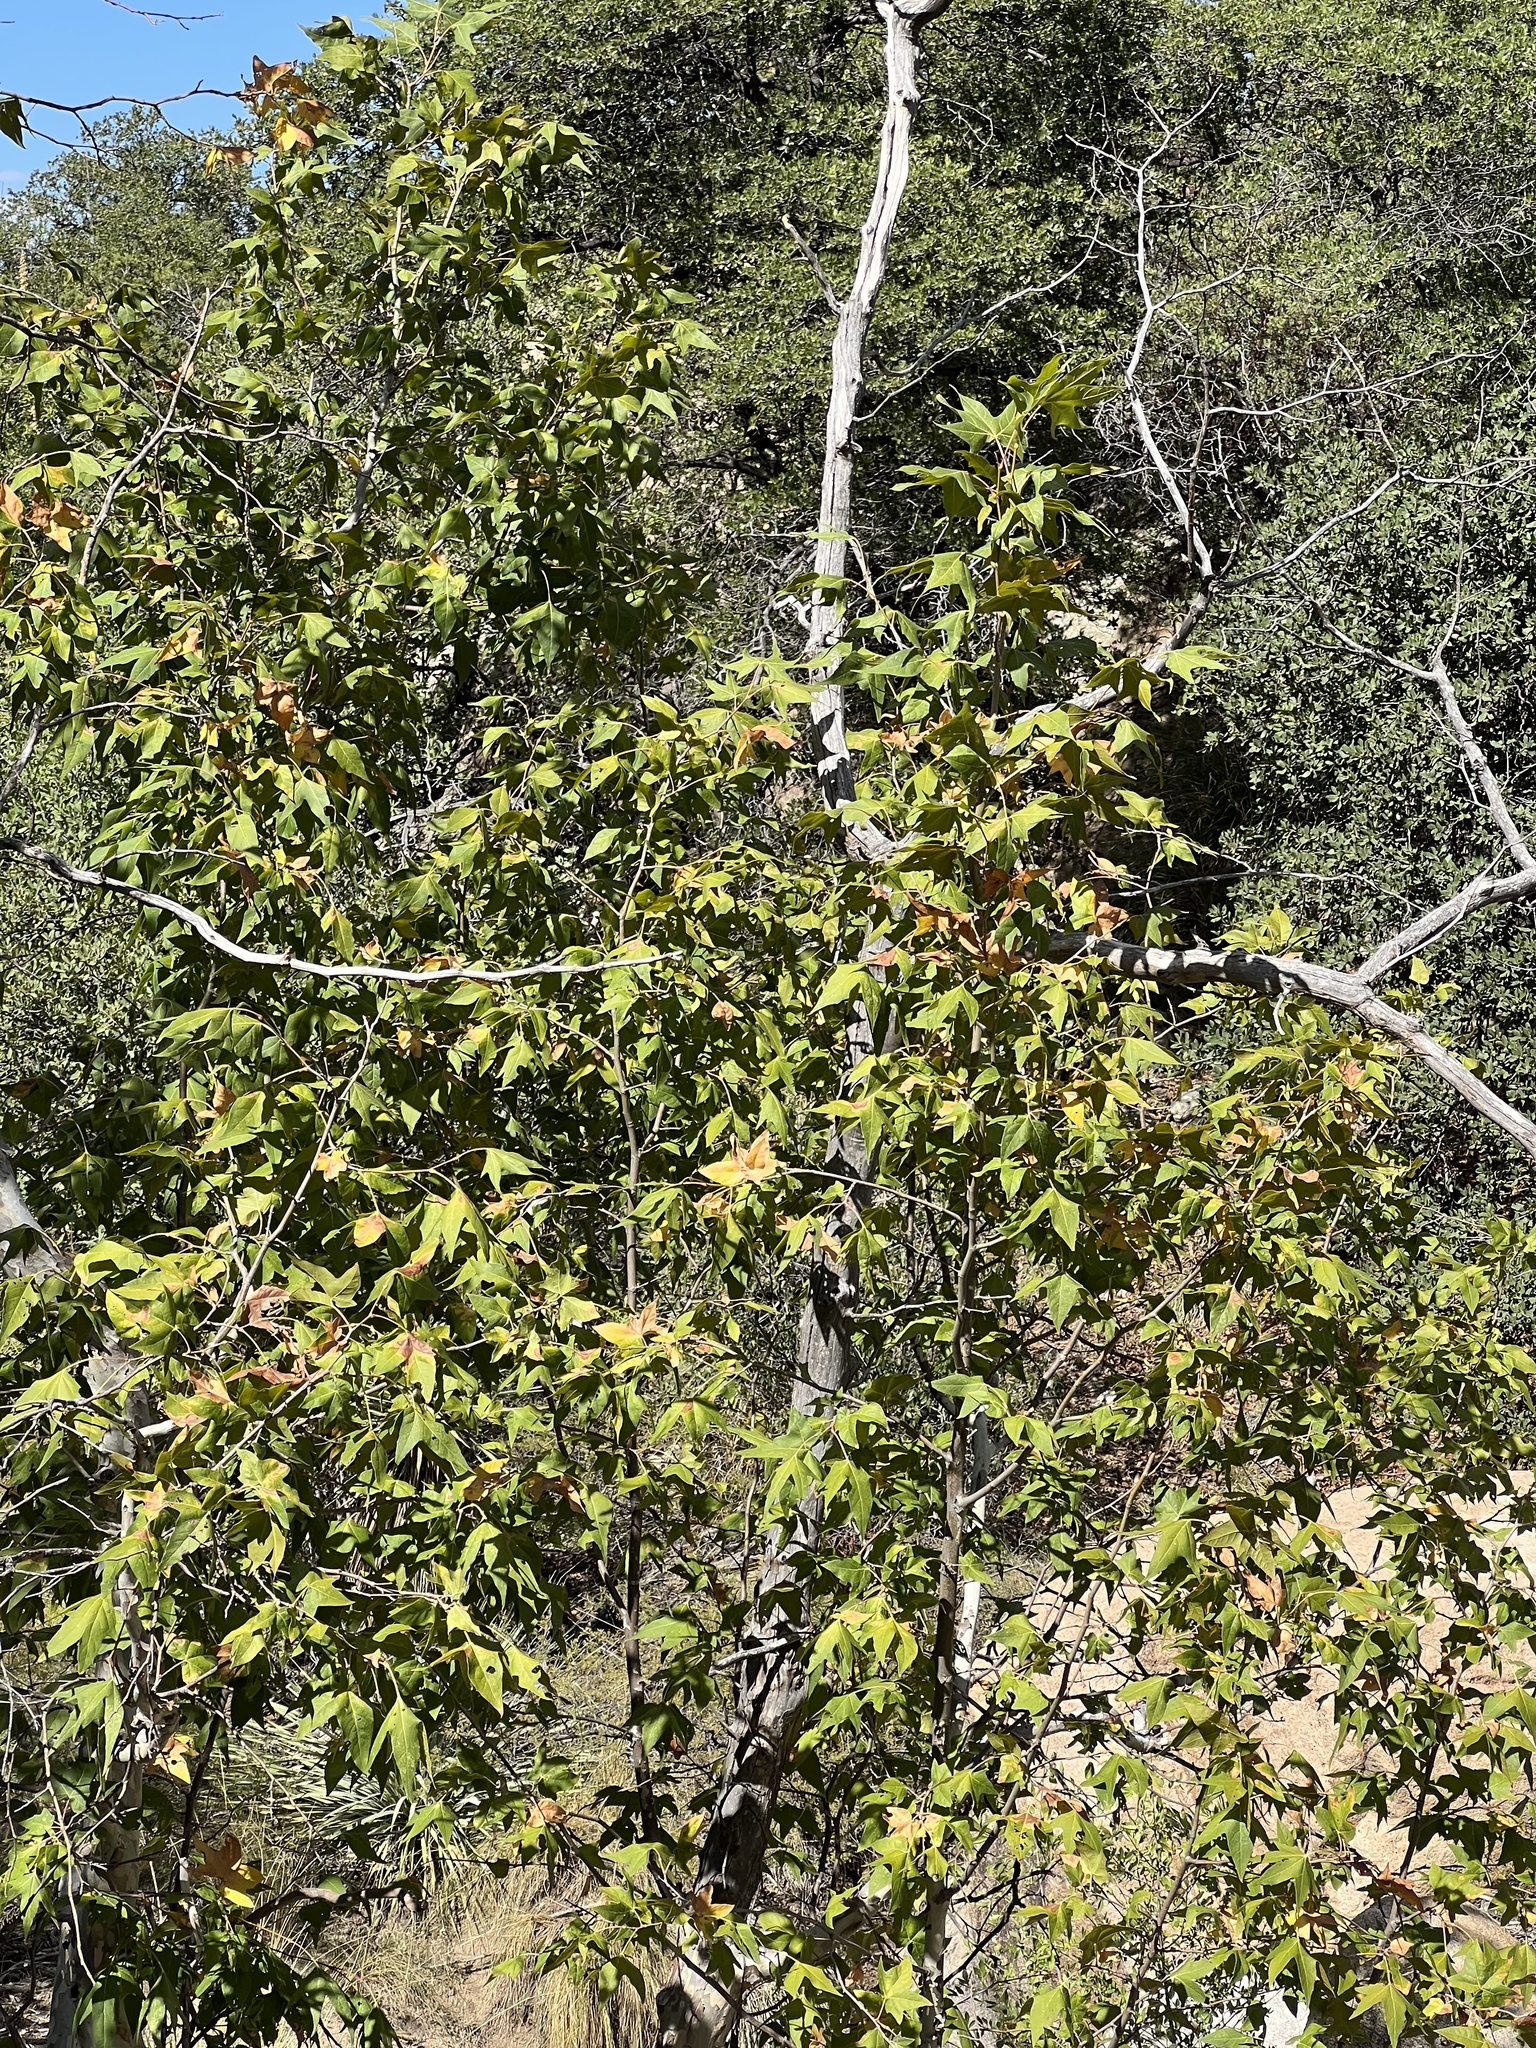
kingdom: Plantae
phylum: Tracheophyta
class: Magnoliopsida
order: Proteales
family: Platanaceae
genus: Platanus
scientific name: Platanus wrightii
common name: Arizona sycamore
